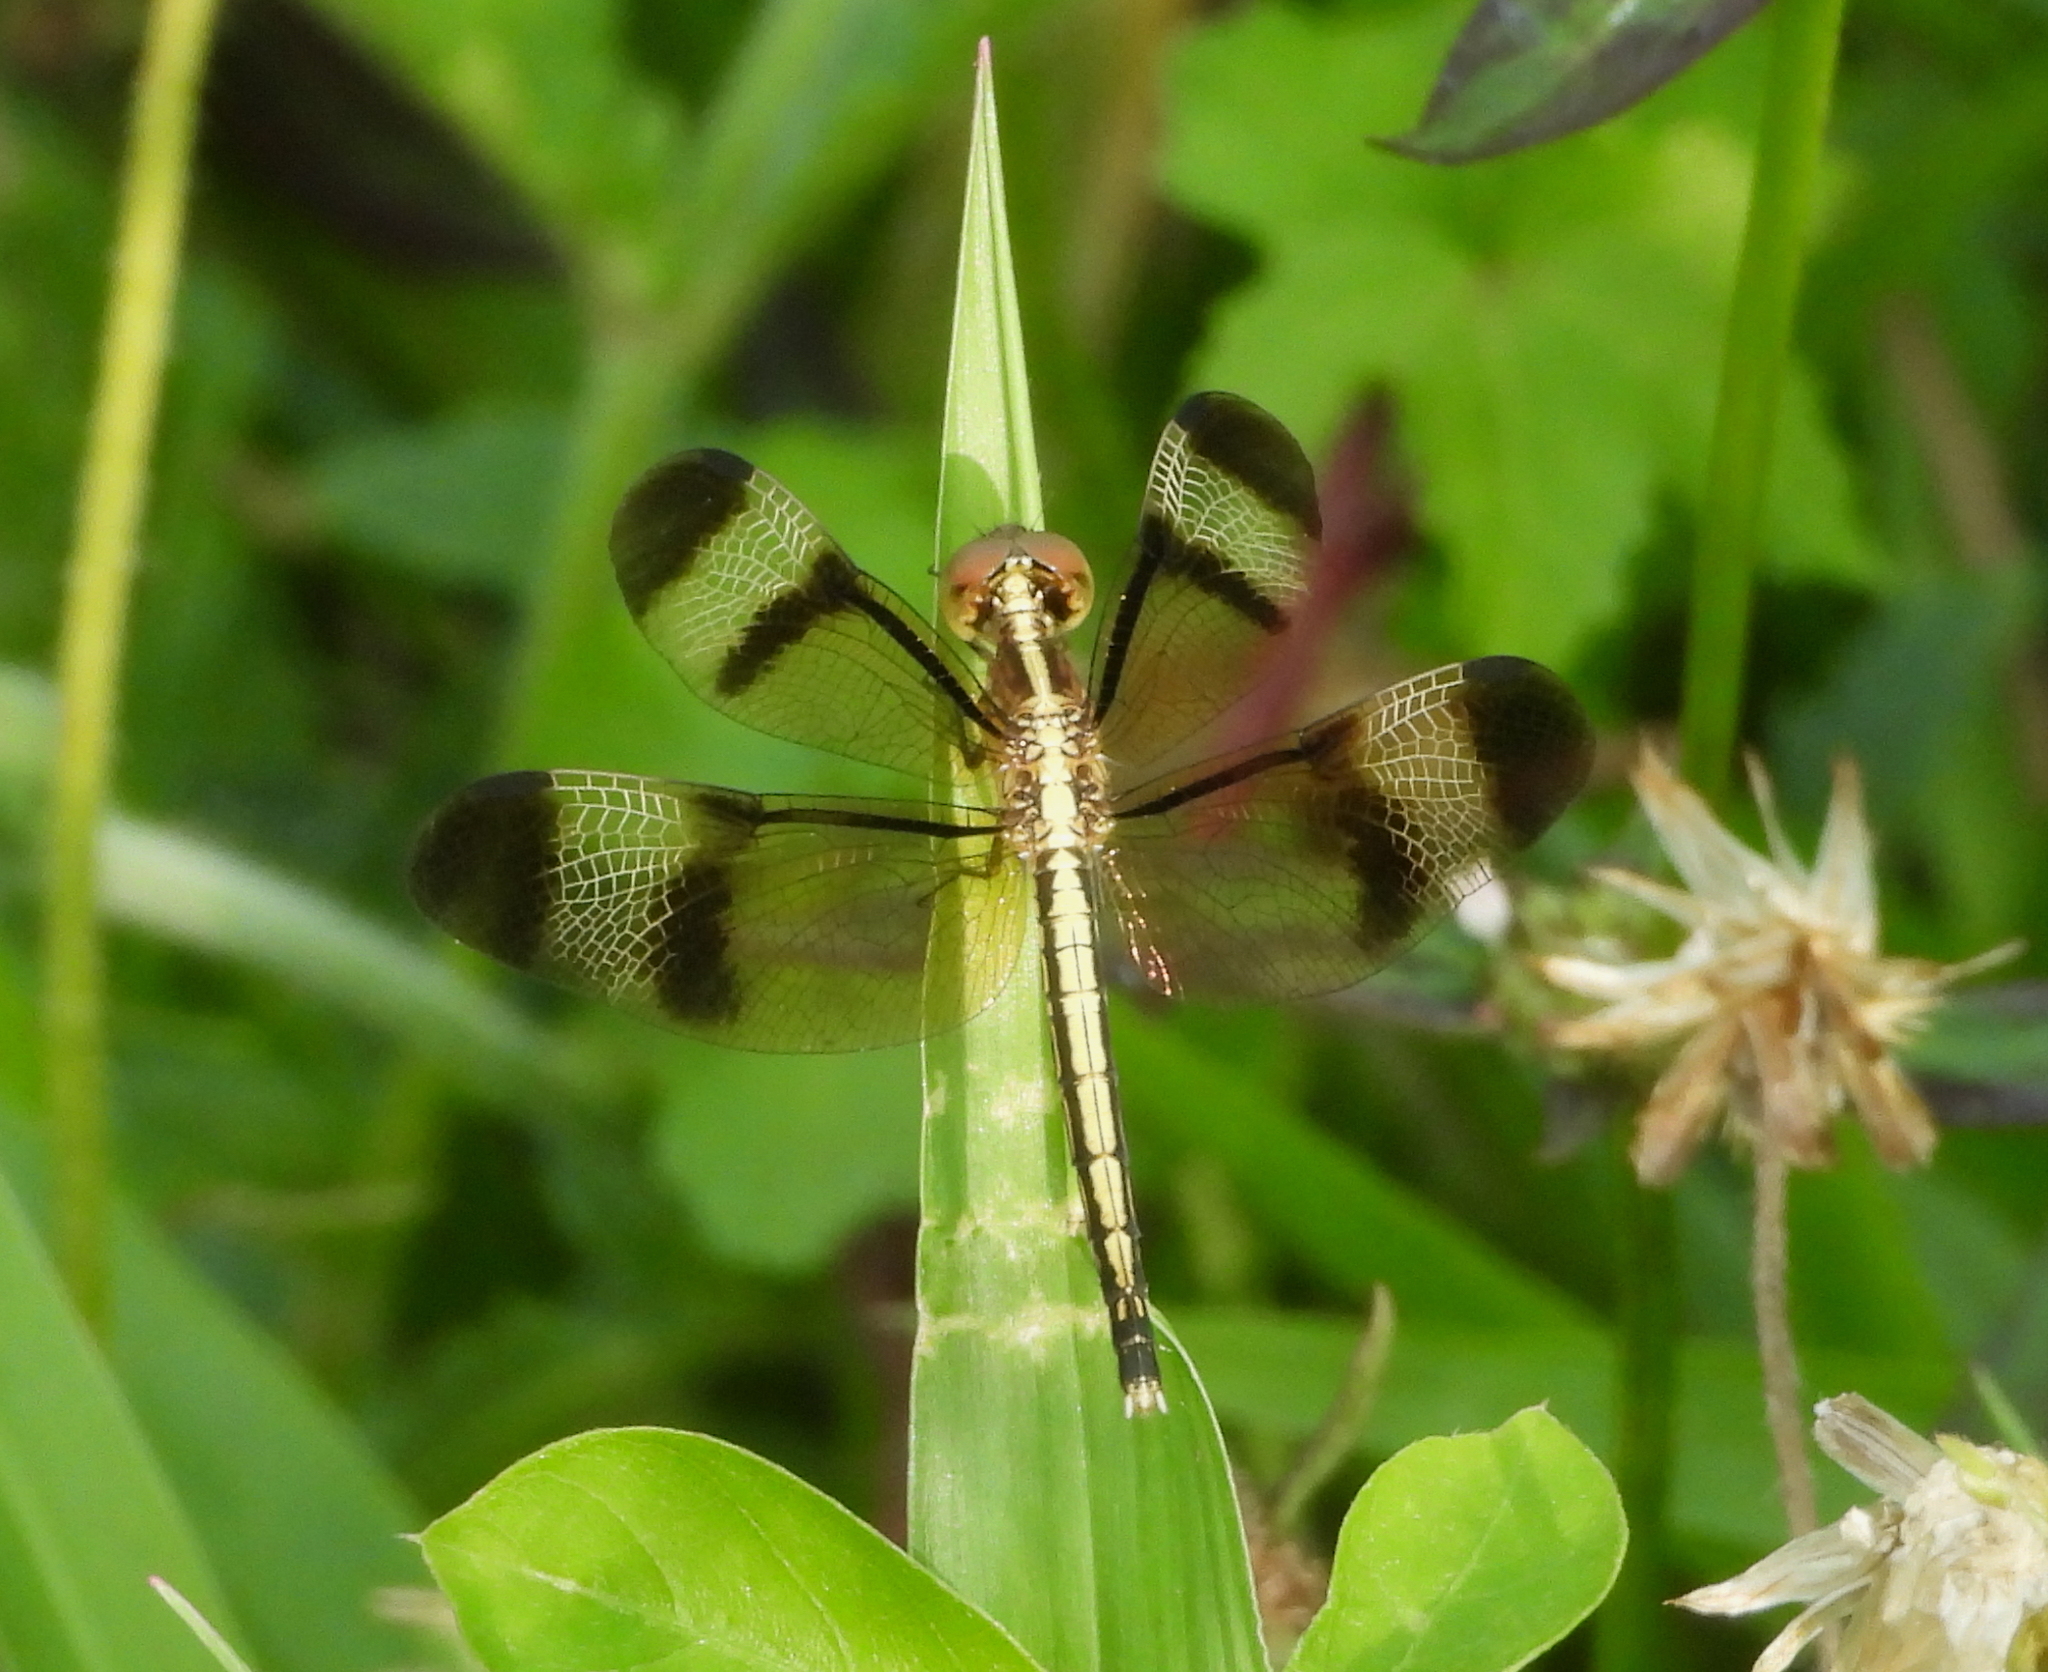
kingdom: Animalia
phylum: Arthropoda
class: Insecta
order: Odonata
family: Libellulidae
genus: Neurothemis
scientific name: Neurothemis tullia
